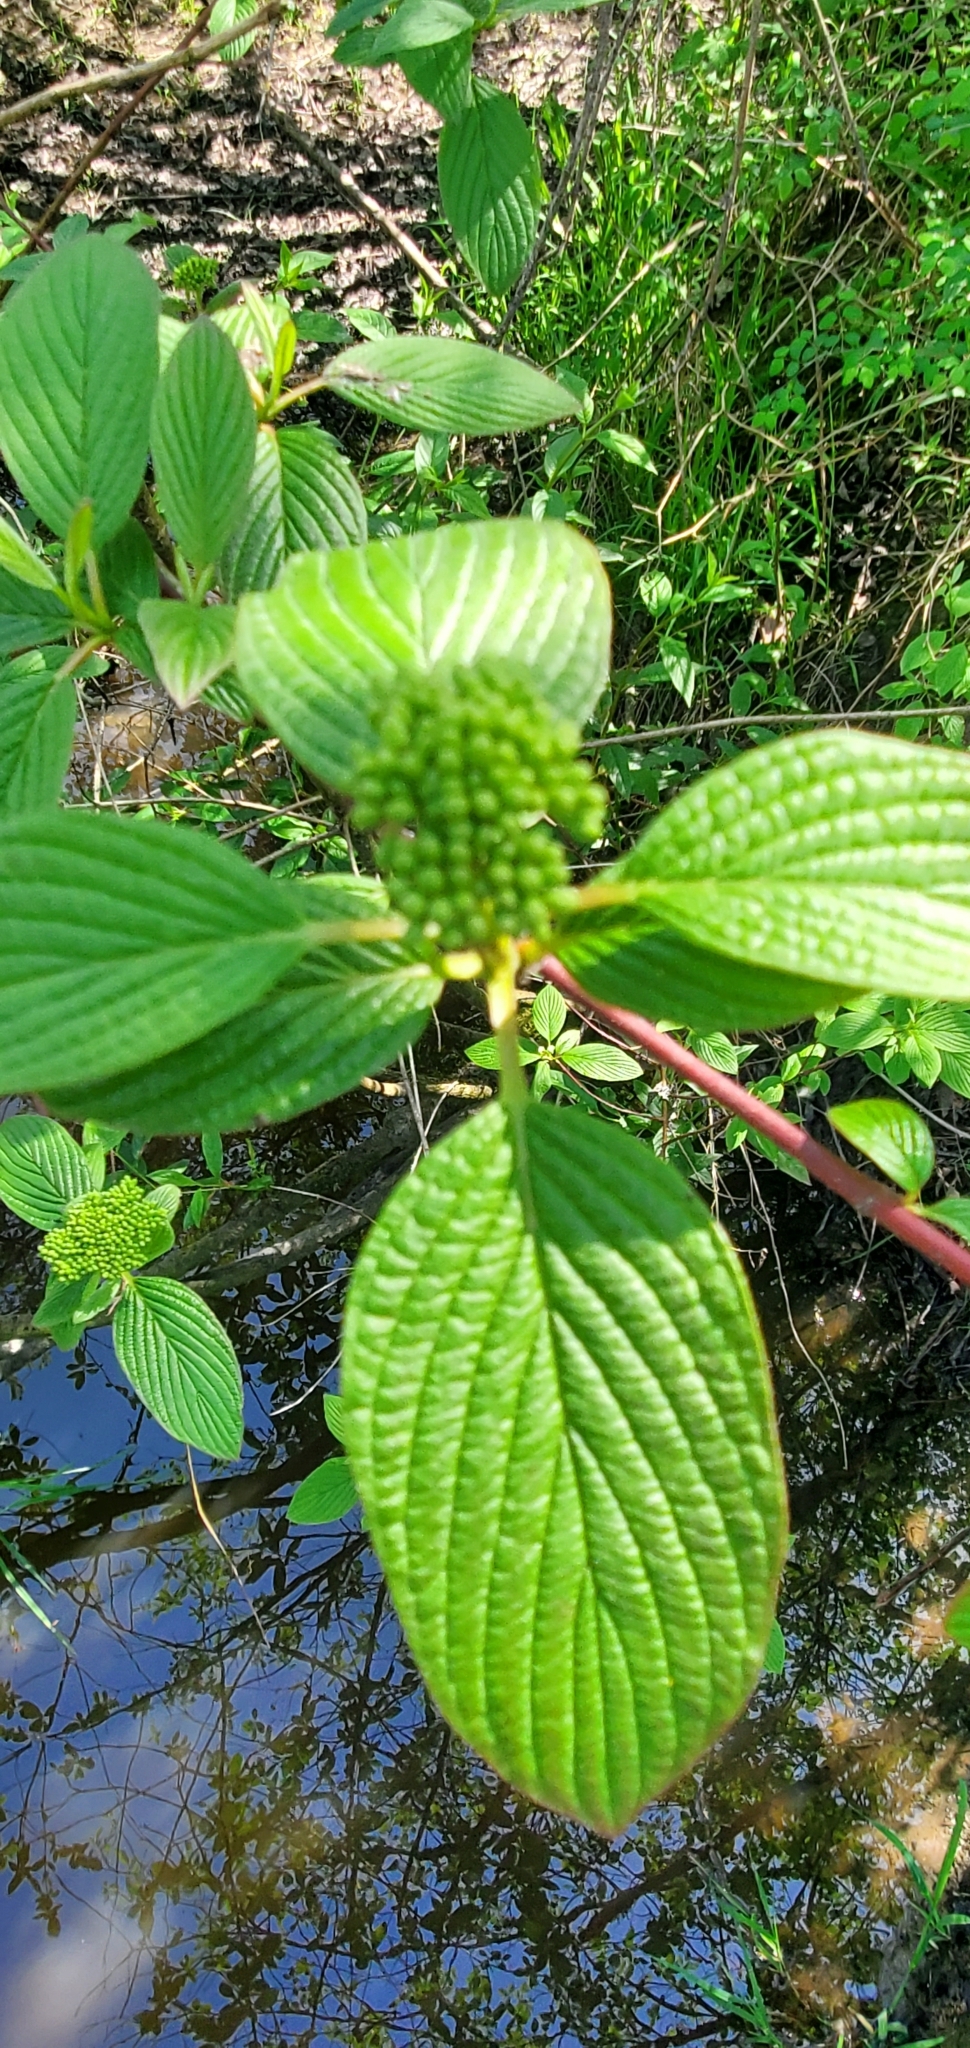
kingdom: Plantae
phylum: Tracheophyta
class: Magnoliopsida
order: Cornales
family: Cornaceae
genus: Cornus
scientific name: Cornus sericea
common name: Red-osier dogwood
